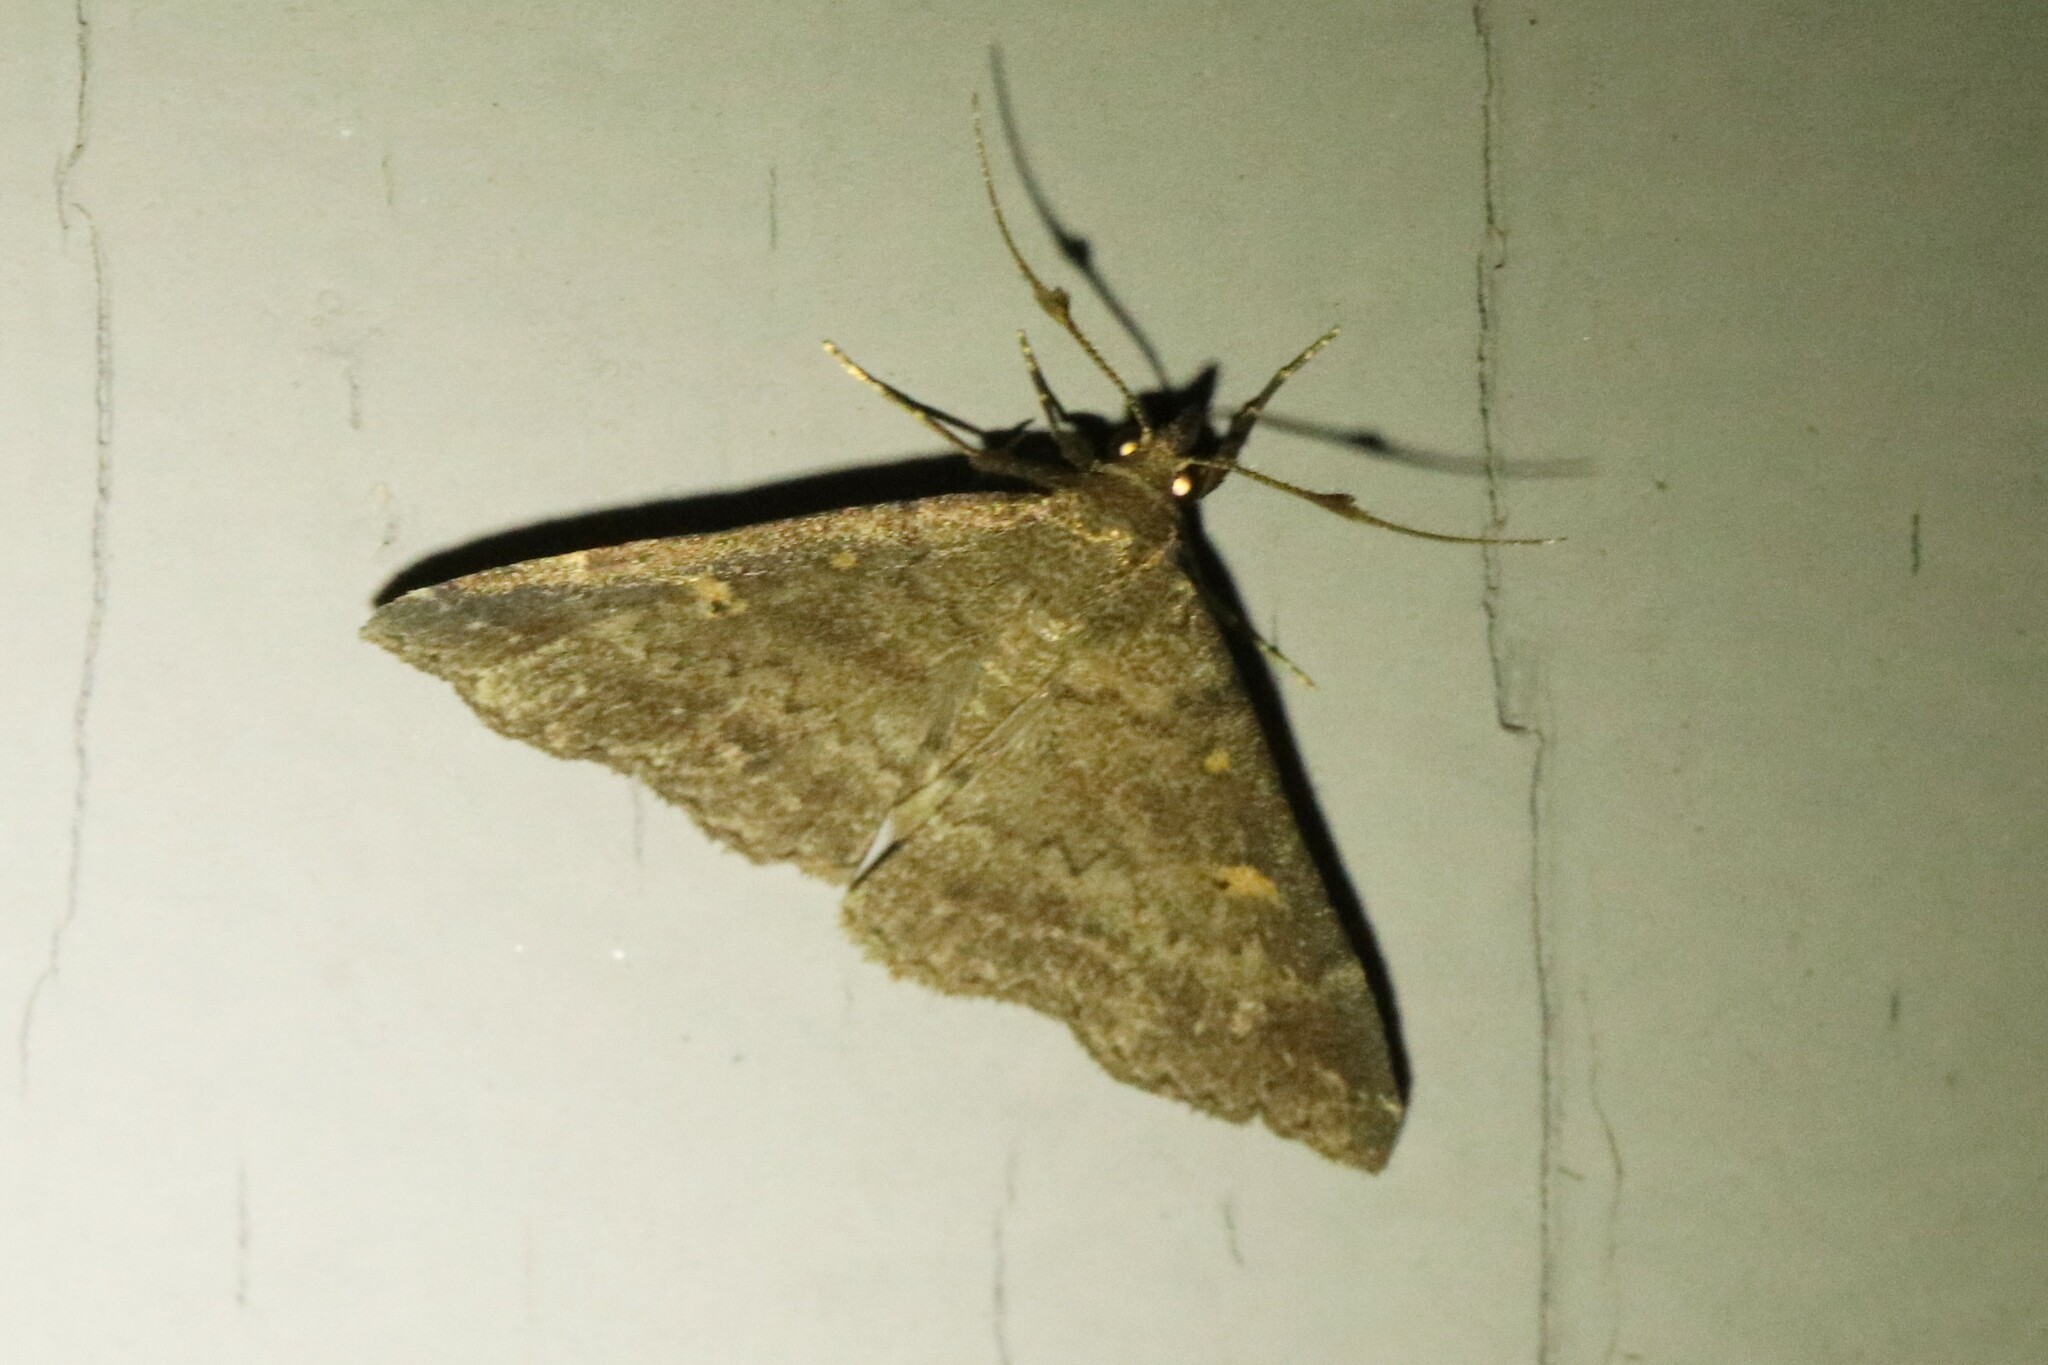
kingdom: Animalia
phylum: Arthropoda
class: Insecta
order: Lepidoptera
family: Erebidae
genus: Renia
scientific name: Renia sobrialis
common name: Sober renia moth
